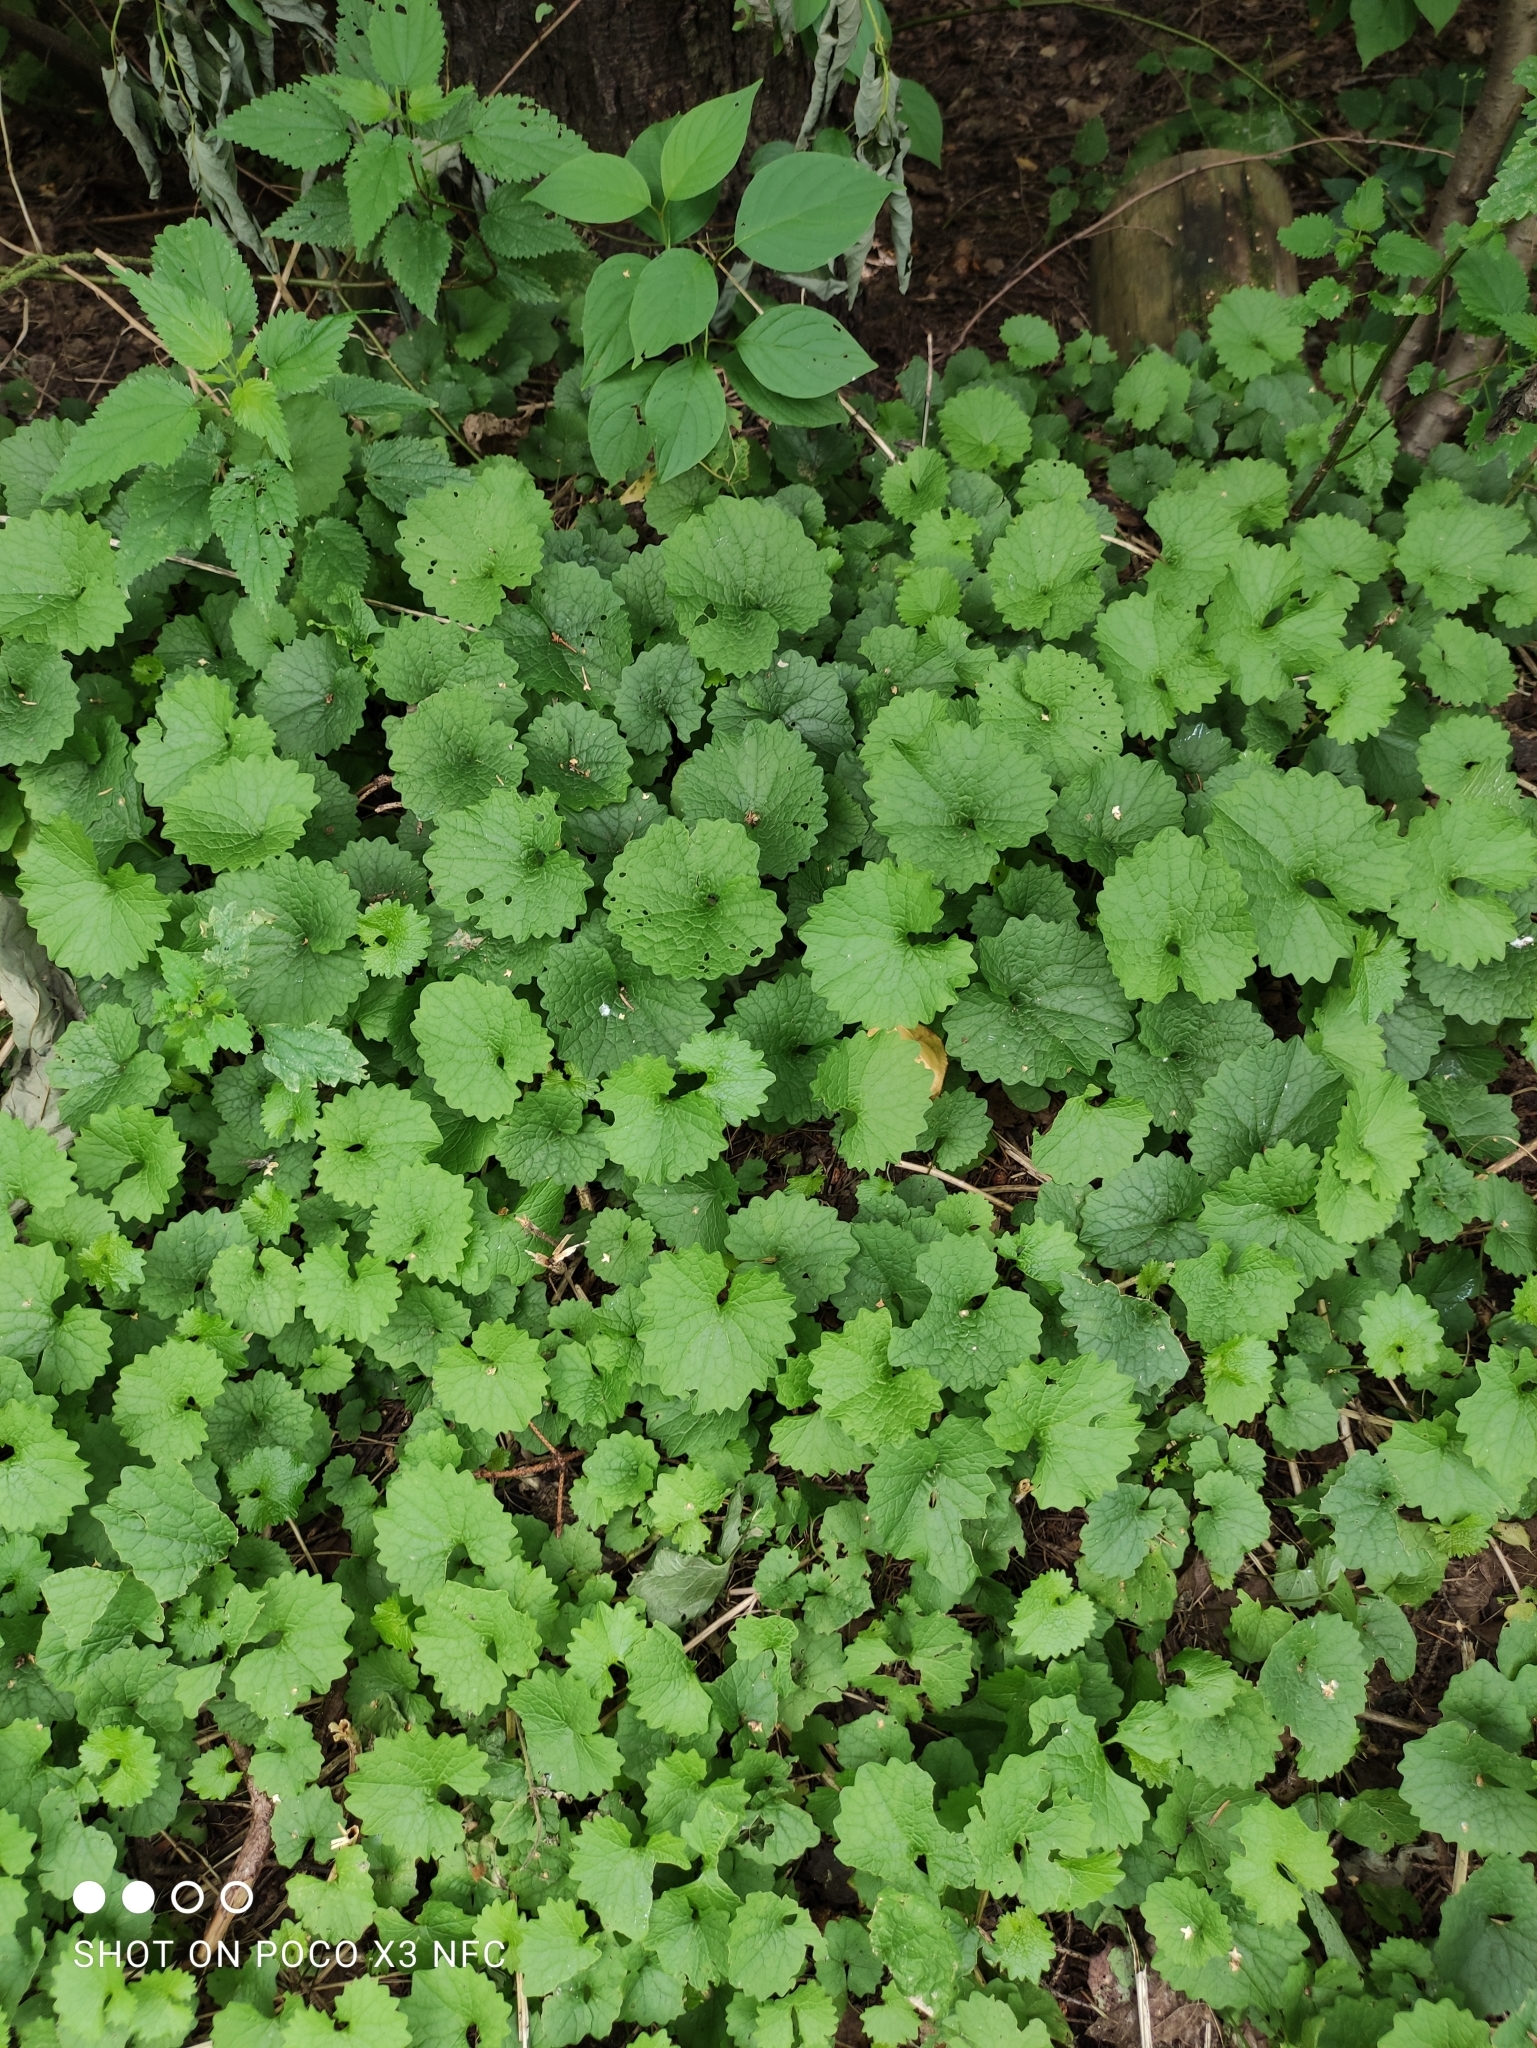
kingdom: Plantae
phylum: Tracheophyta
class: Magnoliopsida
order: Lamiales
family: Lamiaceae
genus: Glechoma
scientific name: Glechoma hederacea
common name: Ground ivy
